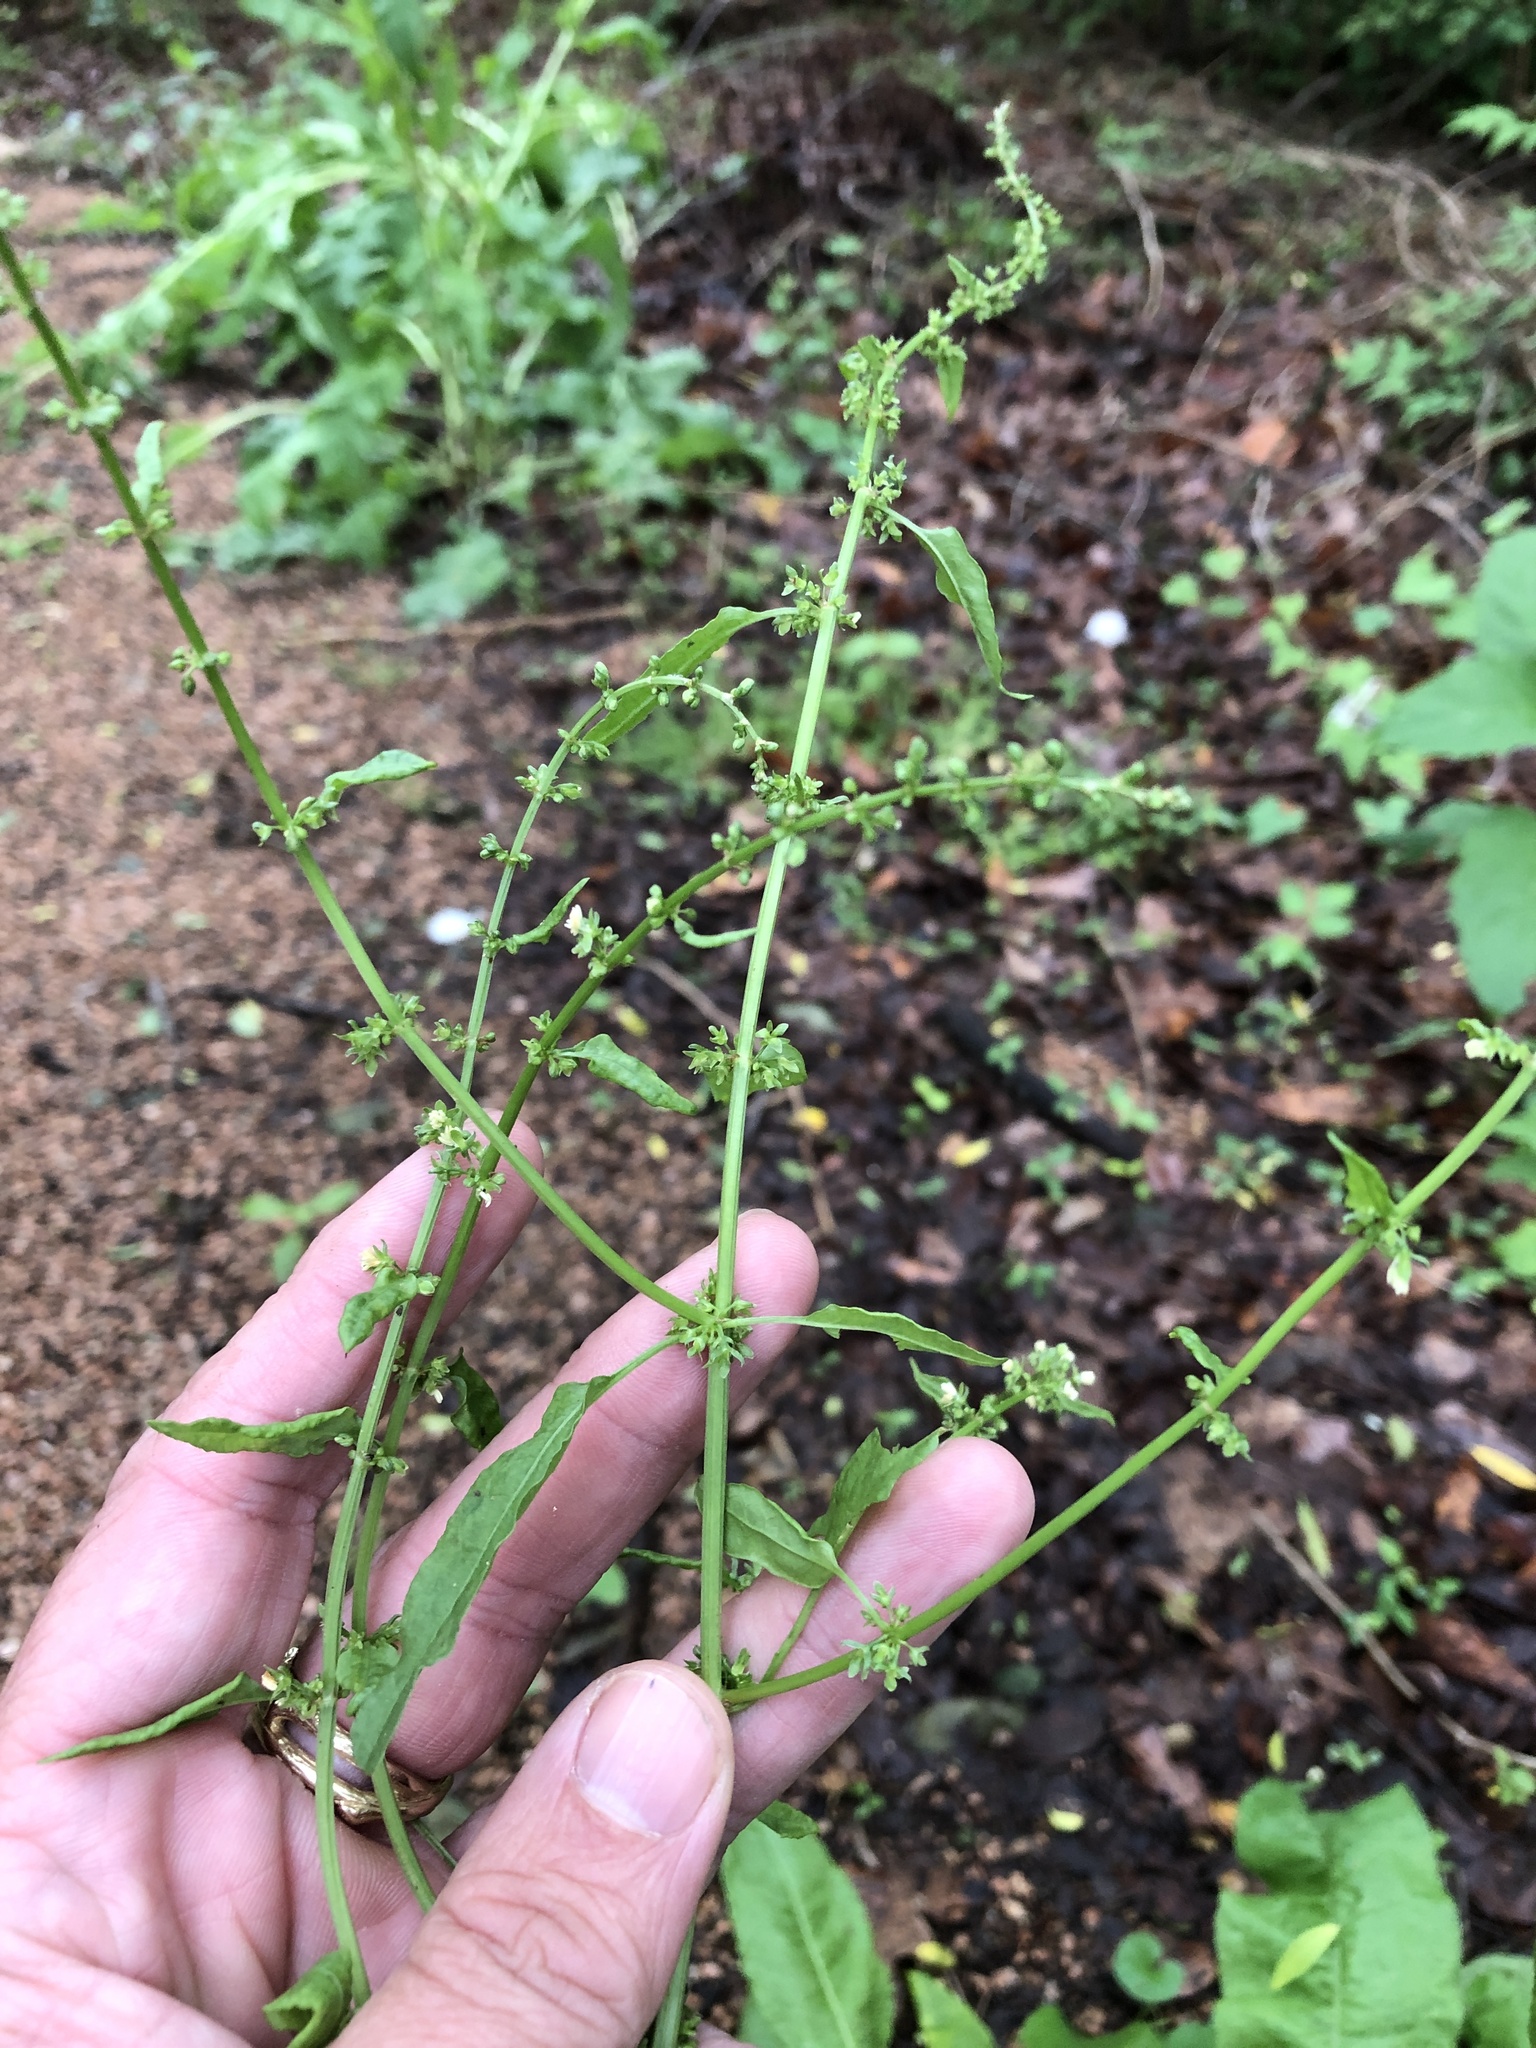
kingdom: Plantae
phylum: Tracheophyta
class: Magnoliopsida
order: Caryophyllales
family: Polygonaceae
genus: Rumex
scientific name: Rumex pulcher
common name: Fiddle dock
